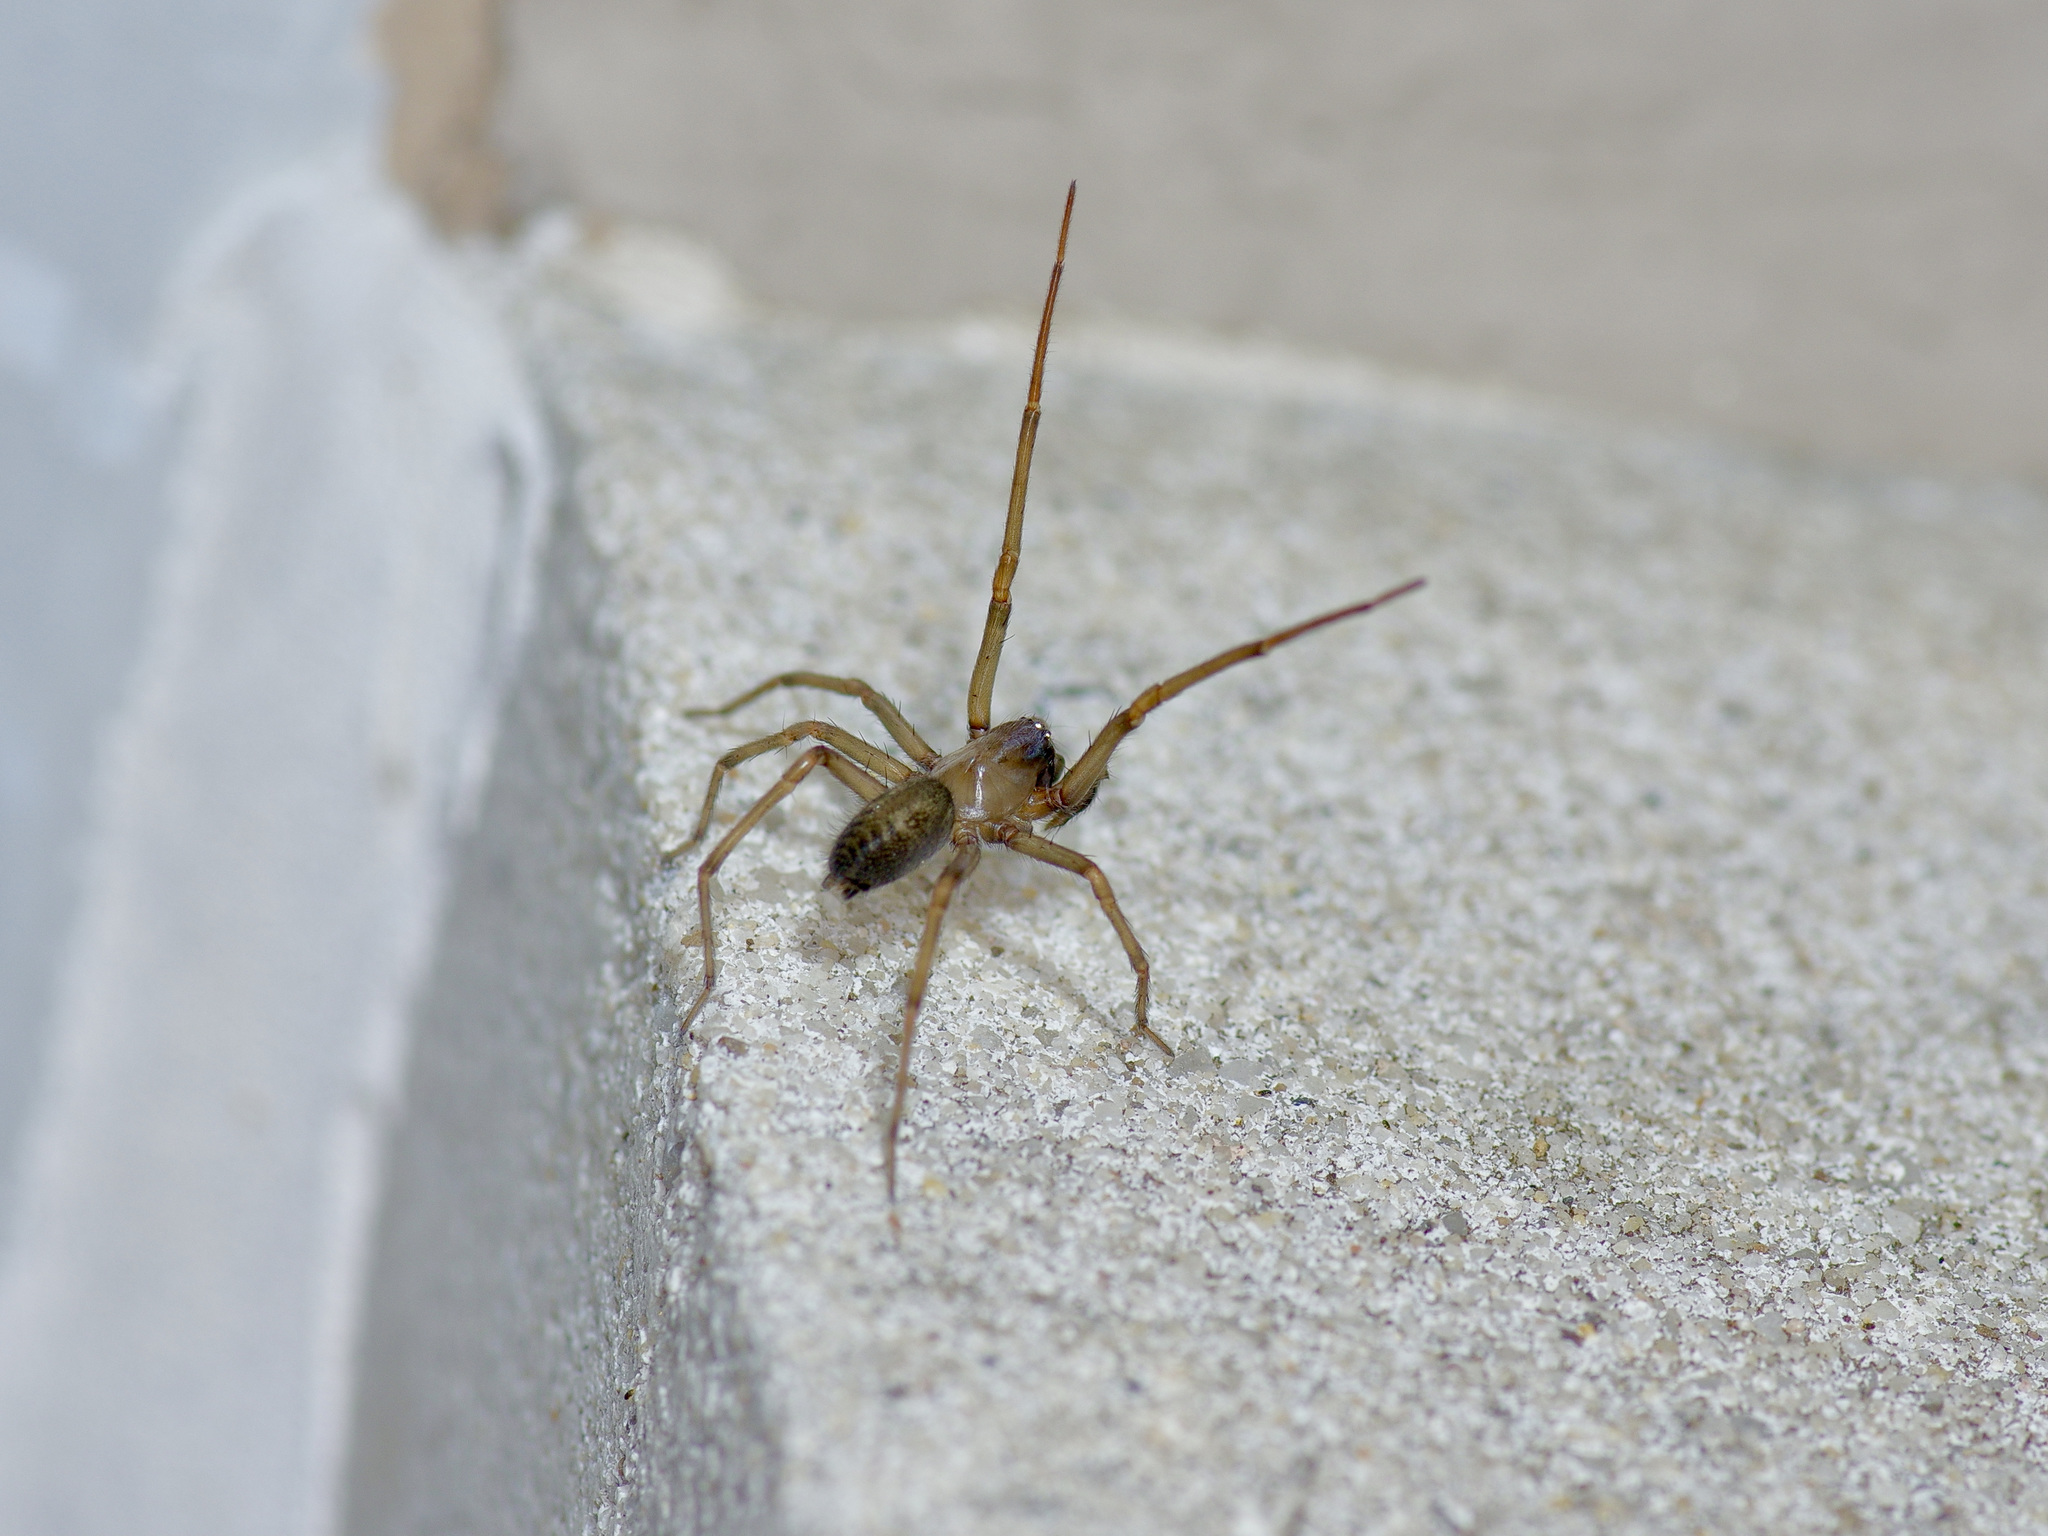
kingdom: Animalia
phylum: Arthropoda
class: Arachnida
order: Araneae
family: Desidae
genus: Metaltella
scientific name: Metaltella simoni
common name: Cribellate spider
